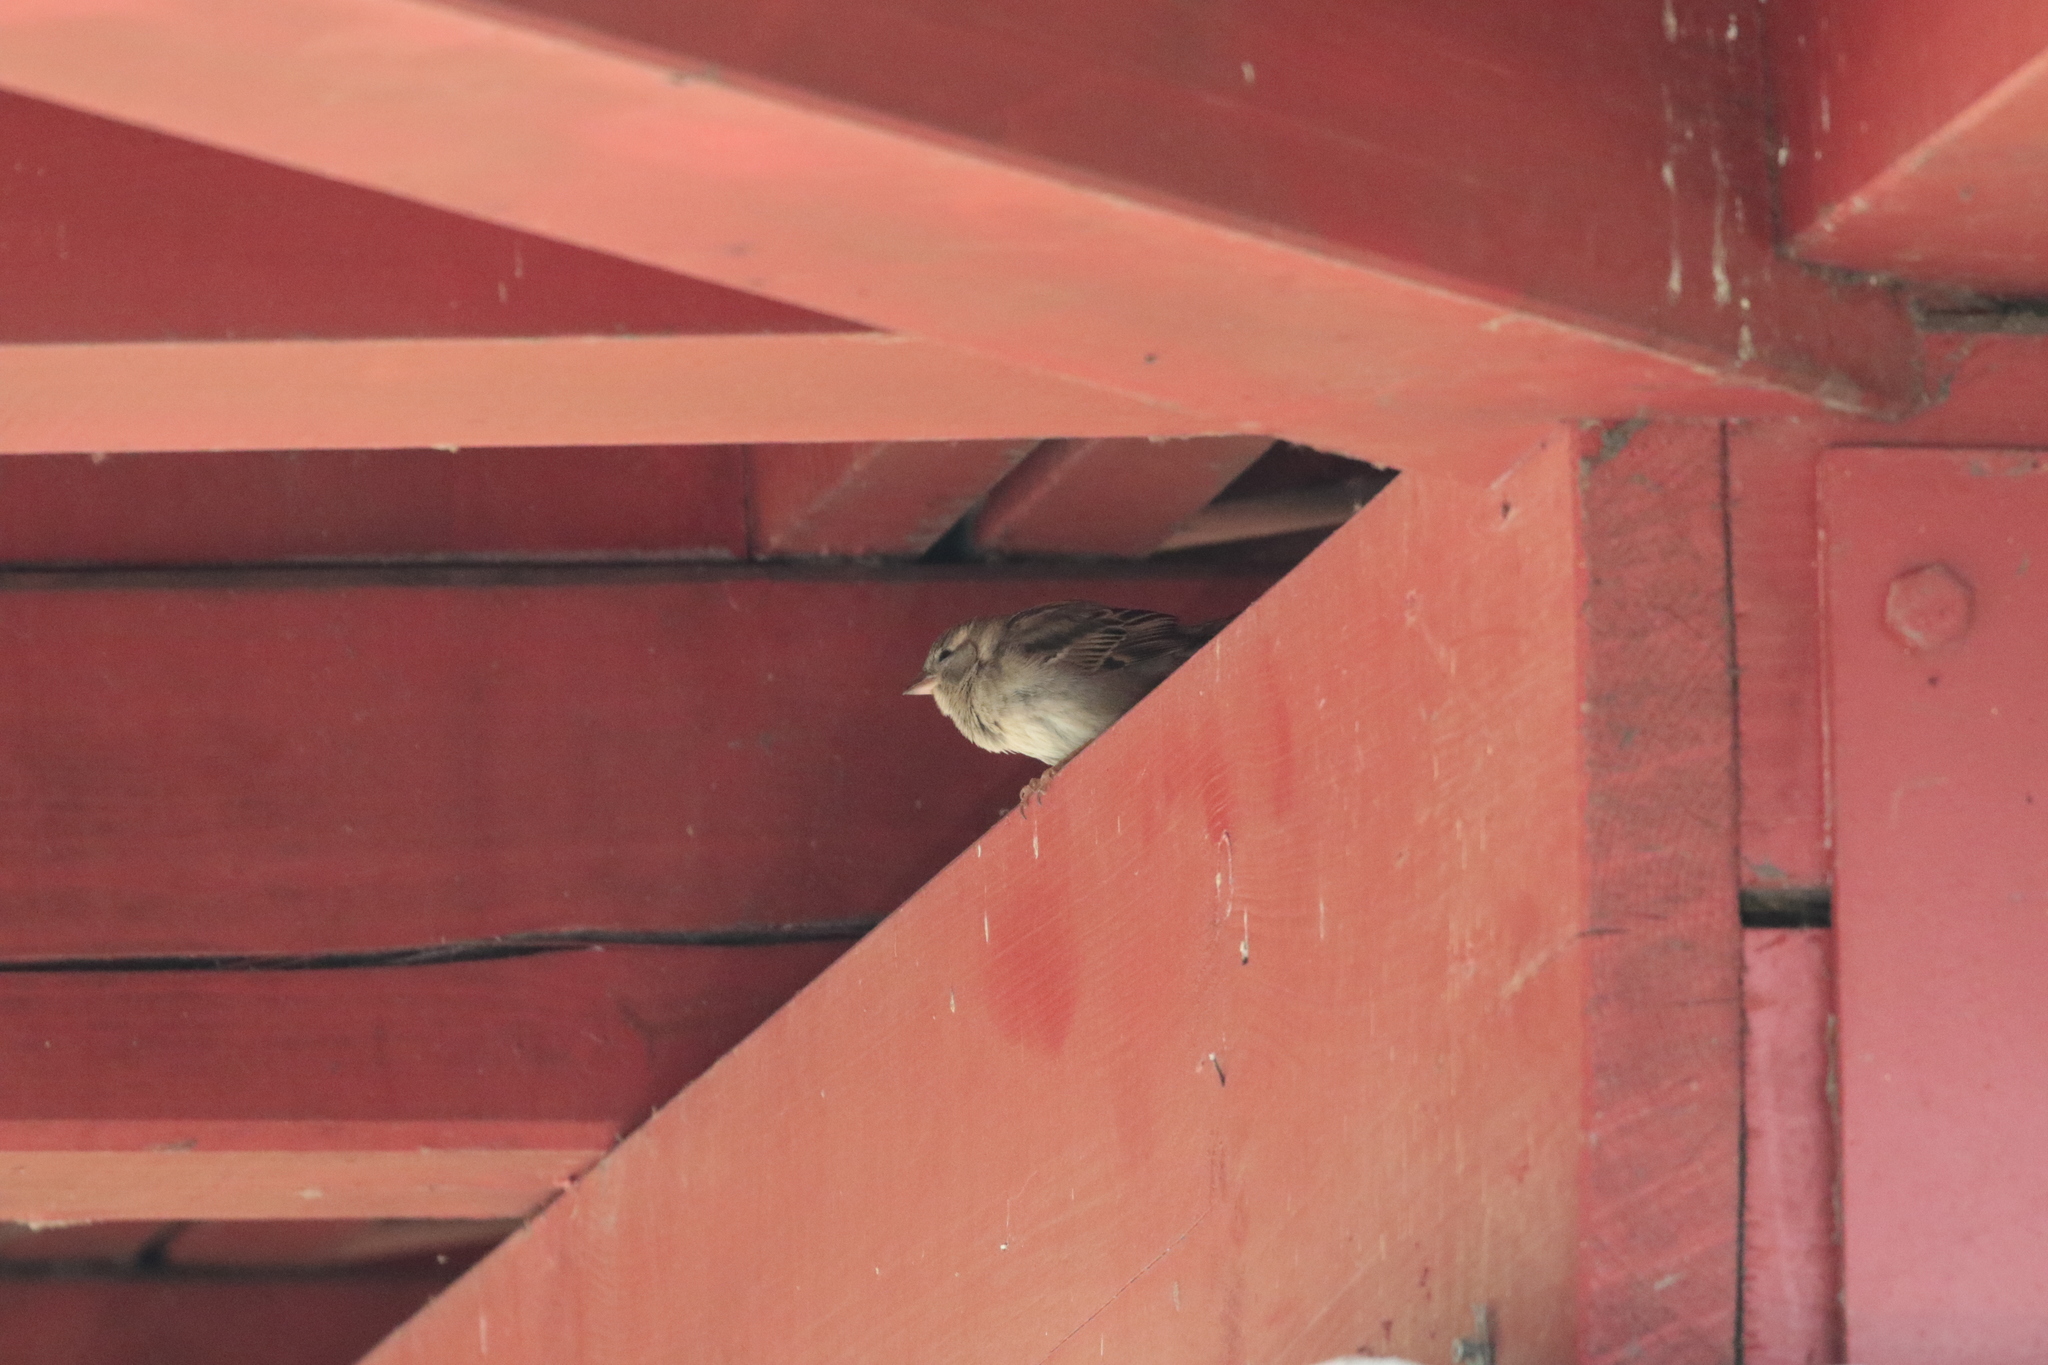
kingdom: Animalia
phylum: Chordata
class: Aves
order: Passeriformes
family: Passeridae
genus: Passer
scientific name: Passer domesticus
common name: House sparrow
